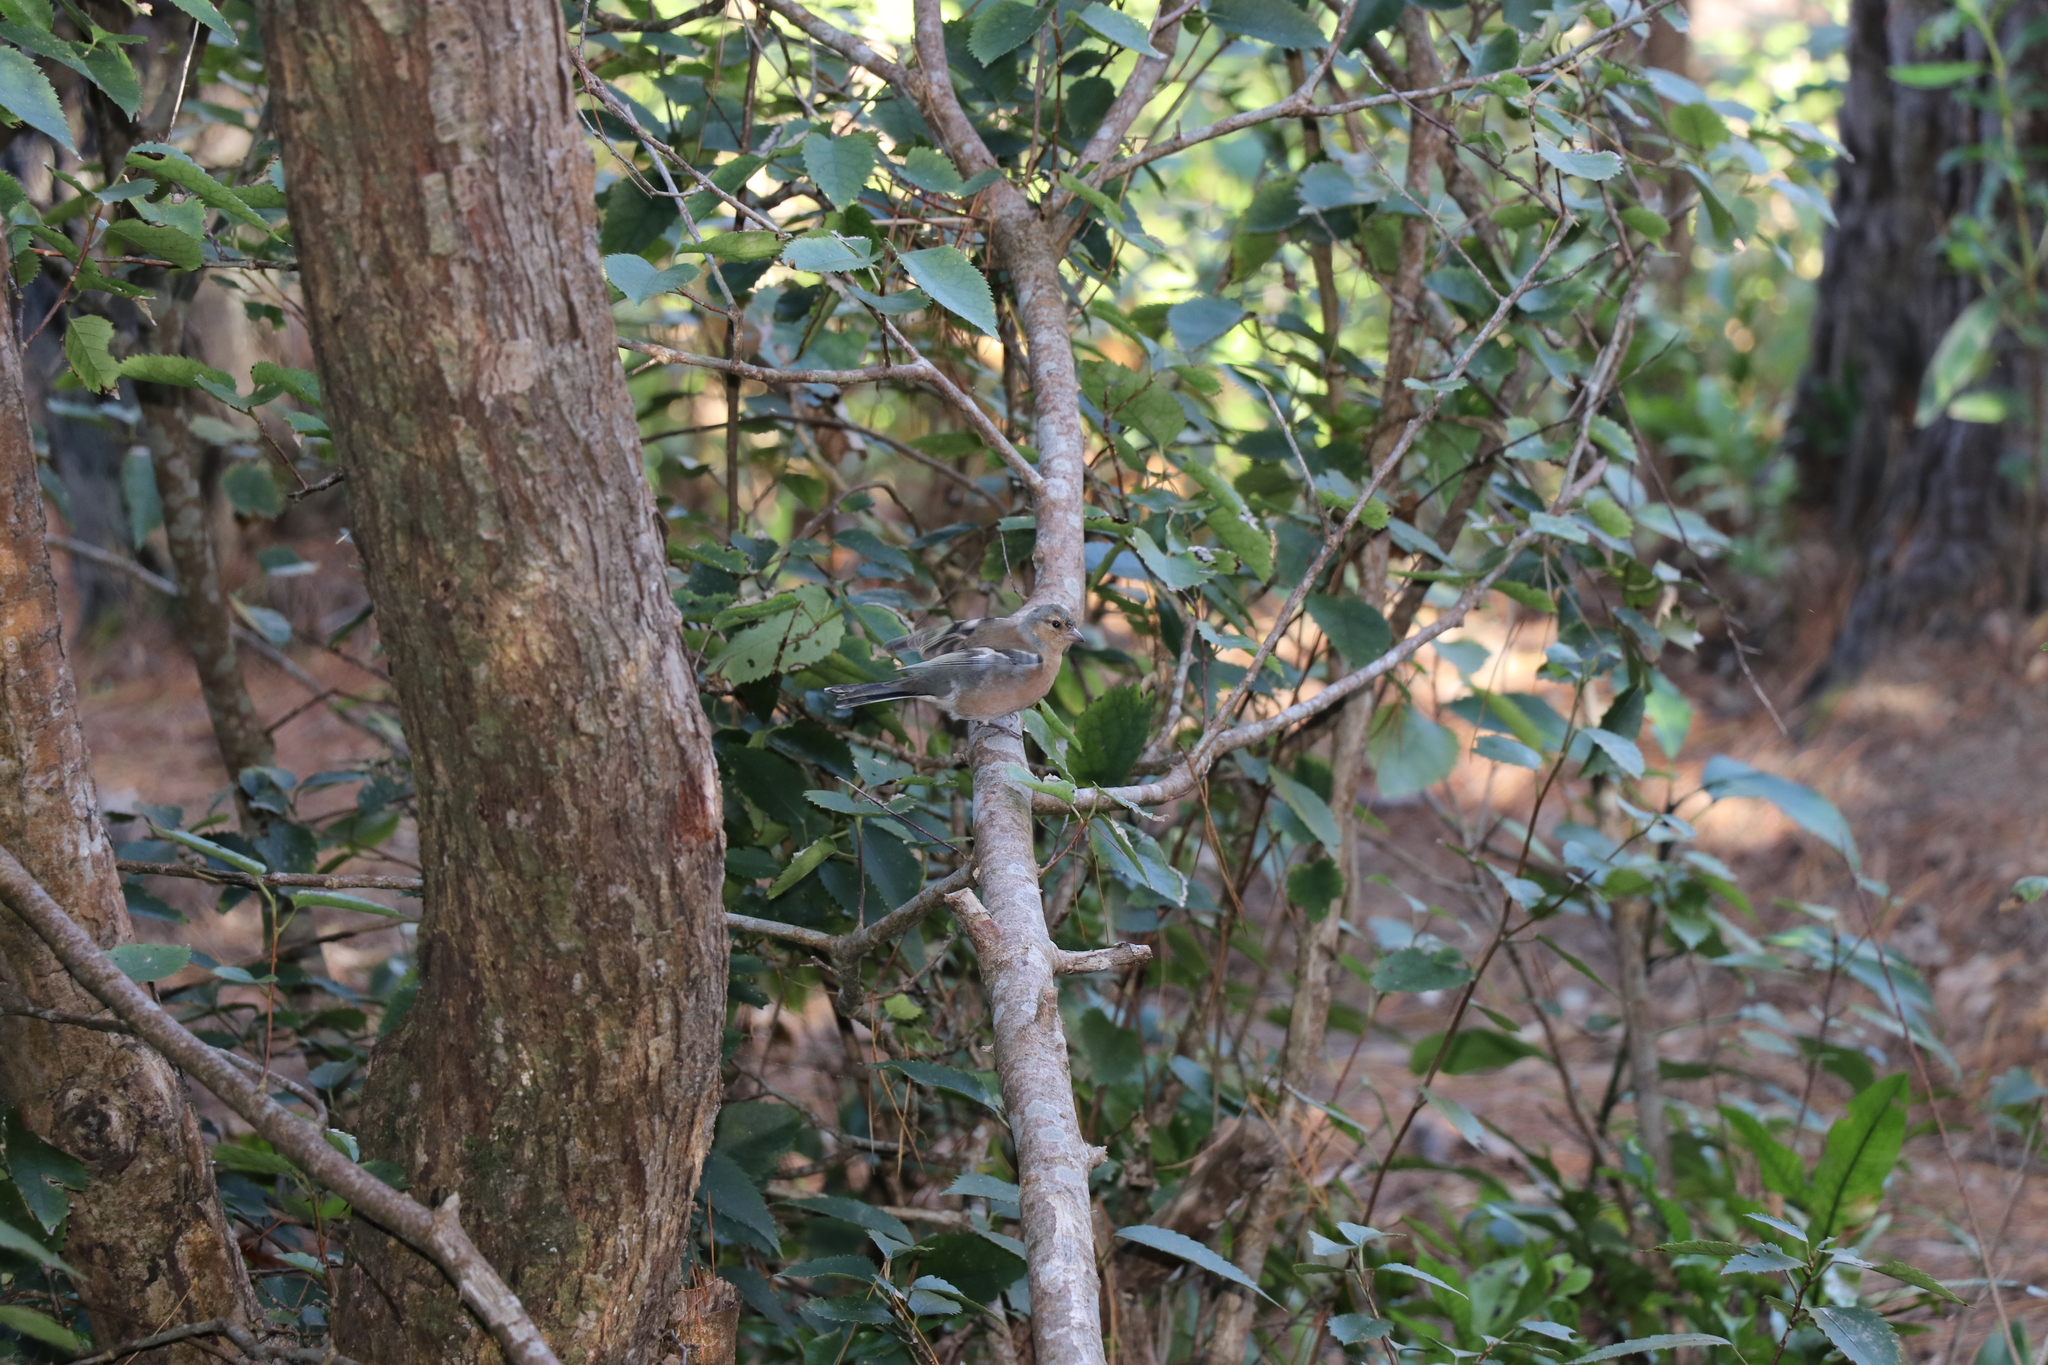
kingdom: Animalia
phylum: Chordata
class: Aves
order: Passeriformes
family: Fringillidae
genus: Fringilla
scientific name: Fringilla coelebs
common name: Common chaffinch
